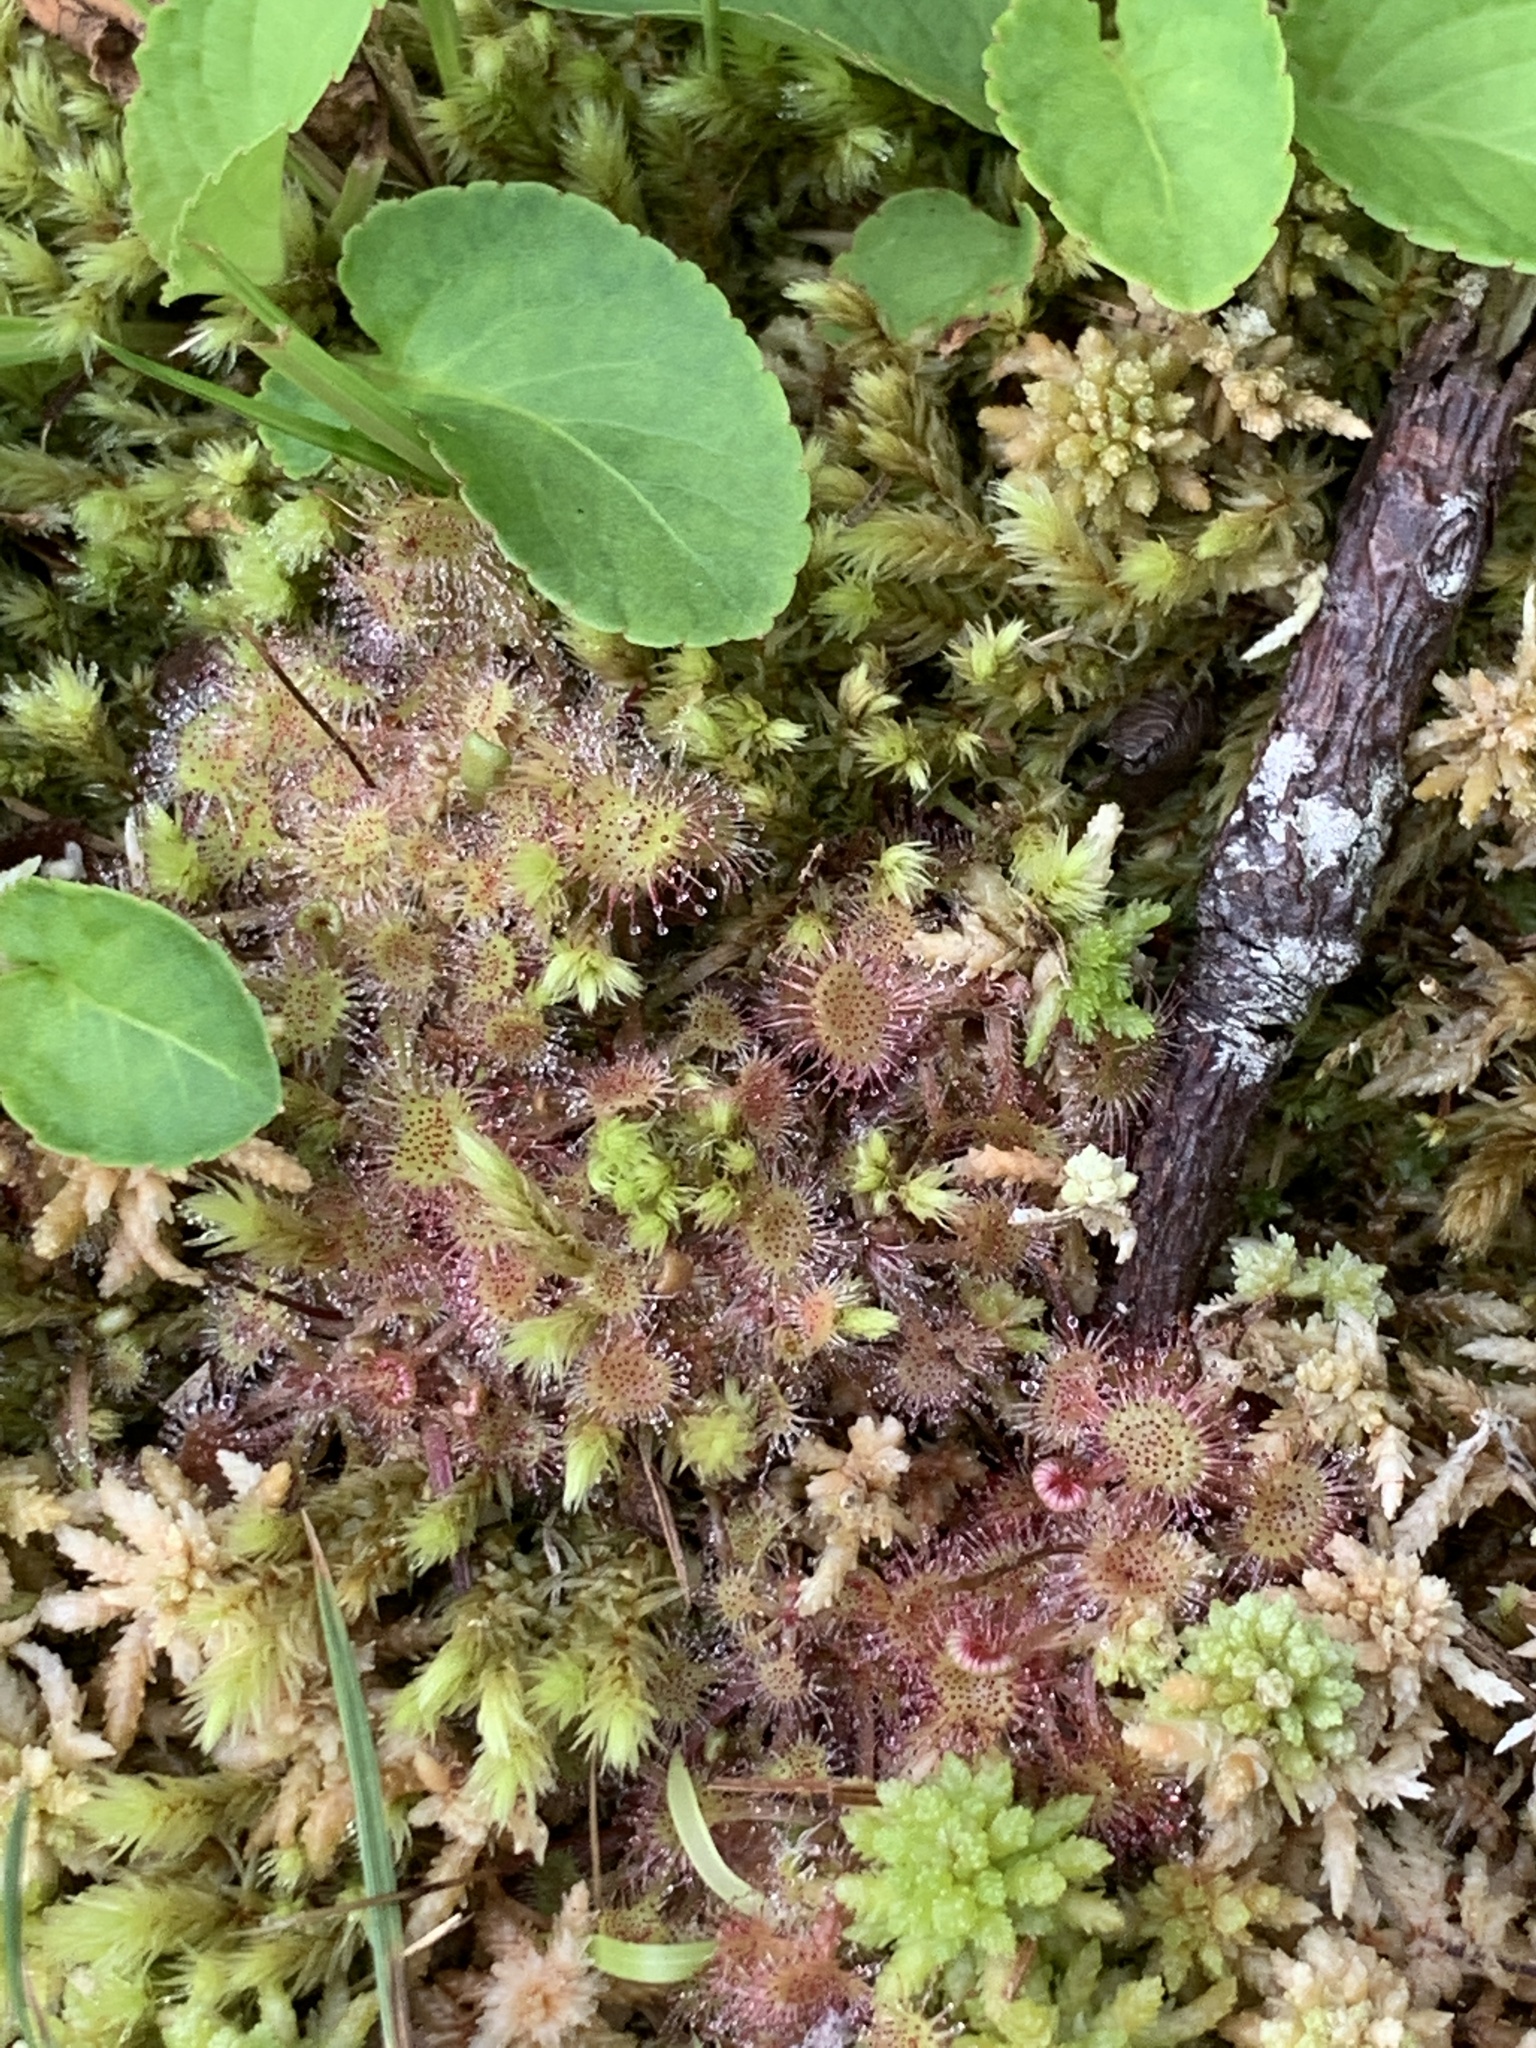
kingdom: Plantae
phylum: Tracheophyta
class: Magnoliopsida
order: Caryophyllales
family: Droseraceae
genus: Drosera
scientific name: Drosera rotundifolia
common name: Round-leaved sundew
